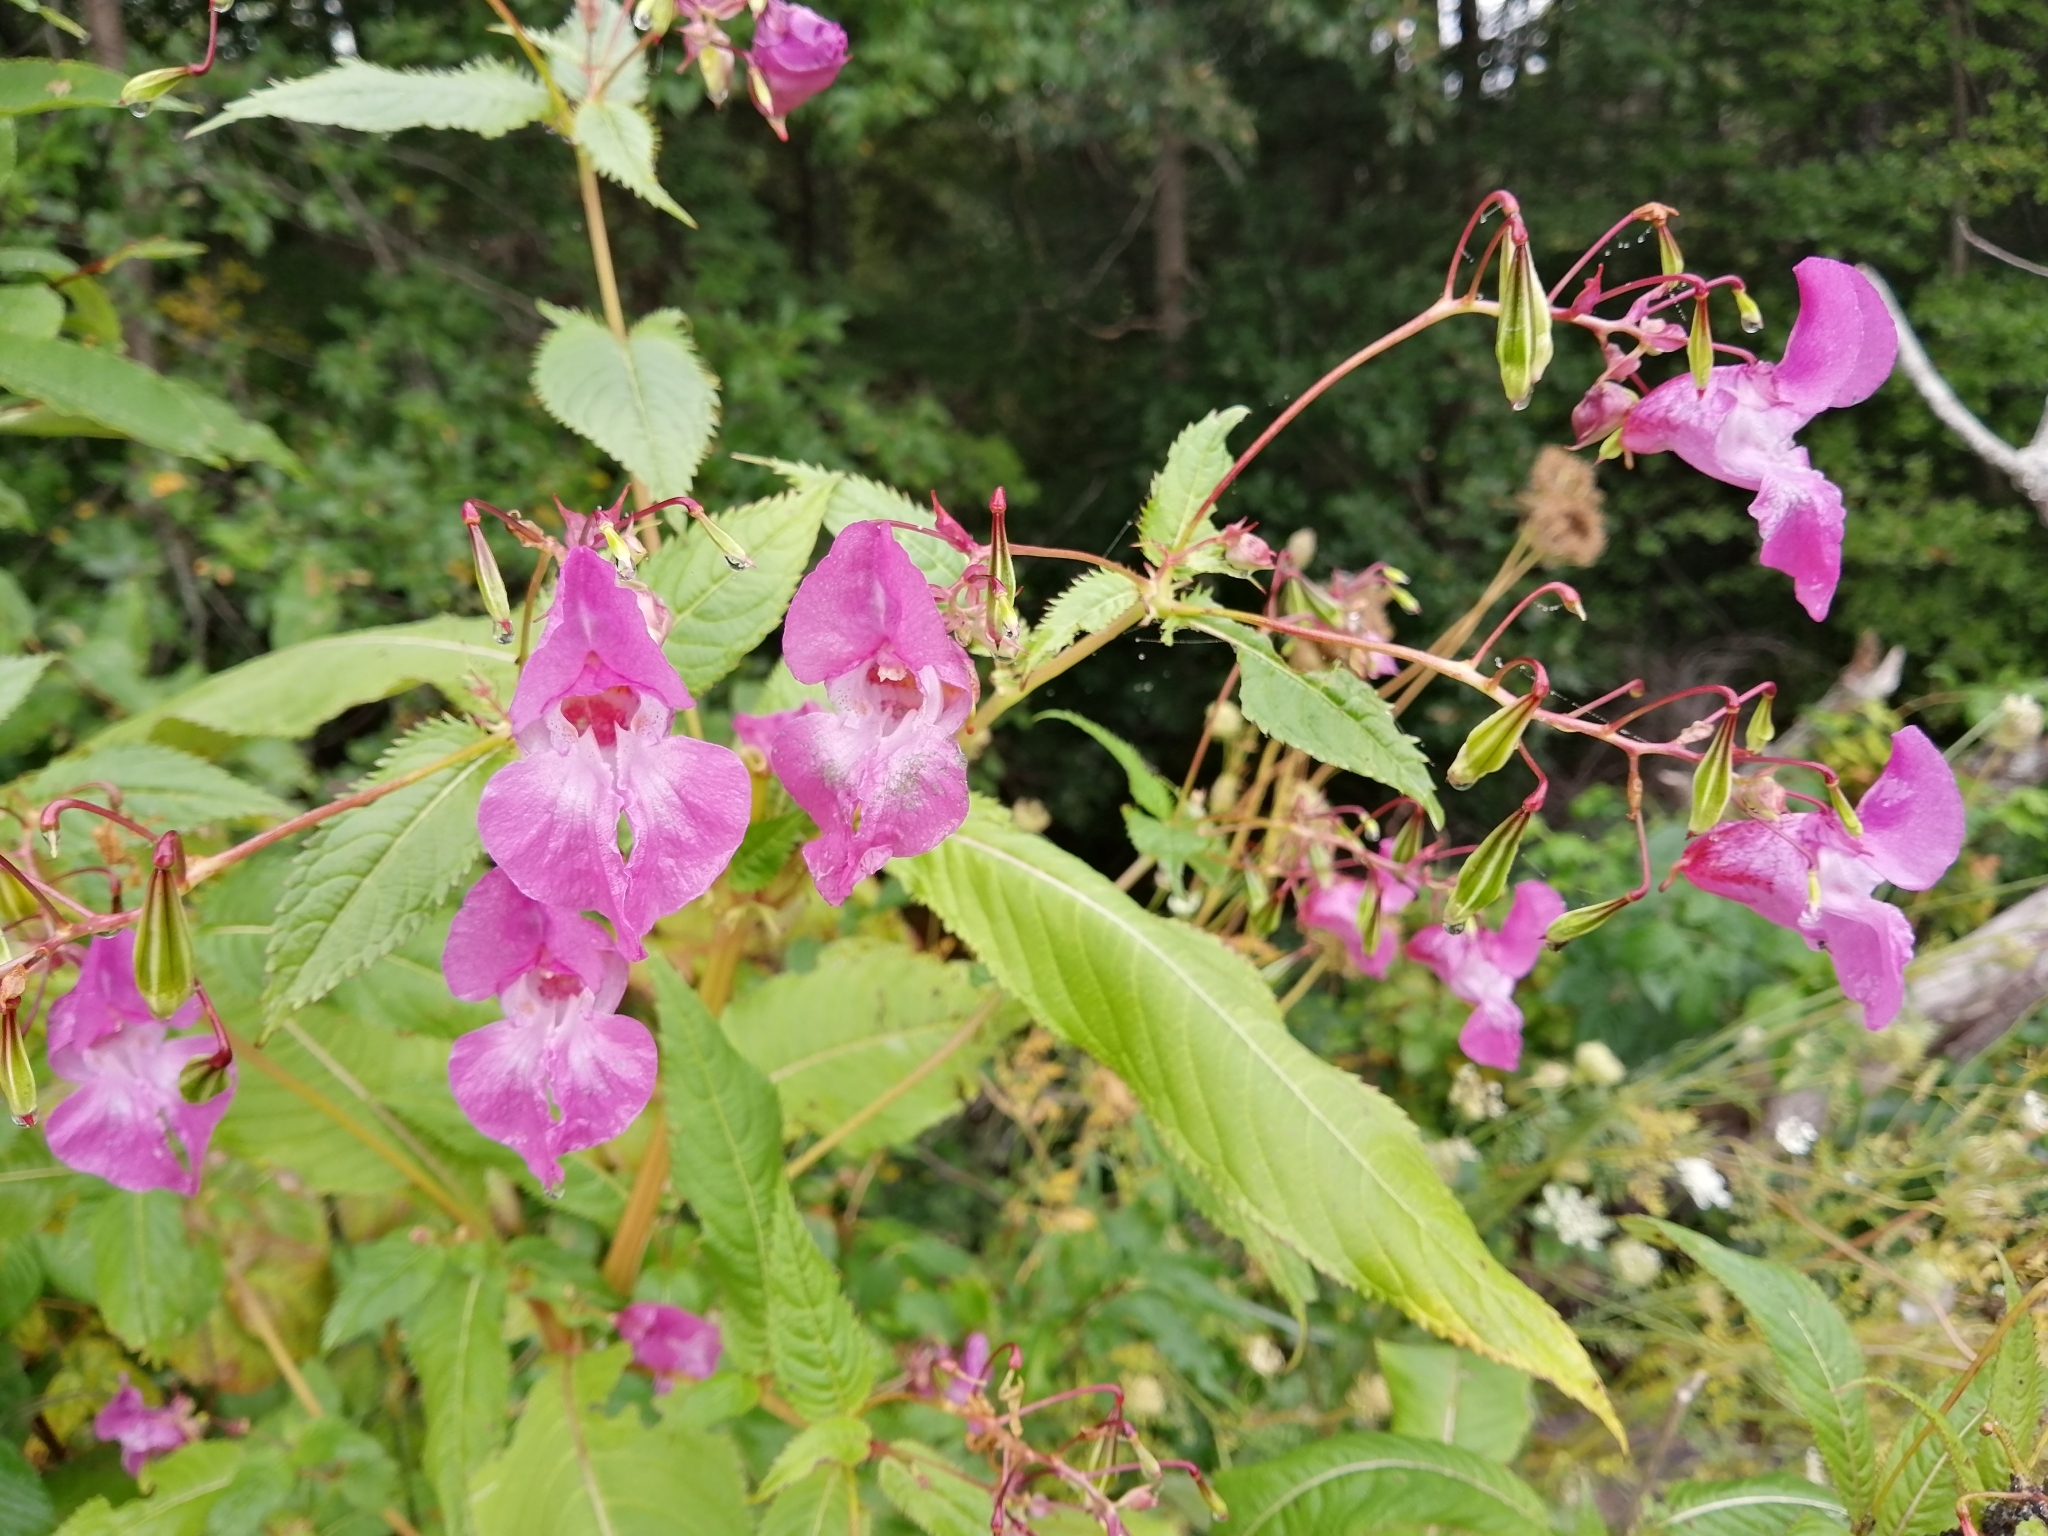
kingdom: Plantae
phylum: Tracheophyta
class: Magnoliopsida
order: Ericales
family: Balsaminaceae
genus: Impatiens
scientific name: Impatiens glandulifera
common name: Himalayan balsam
